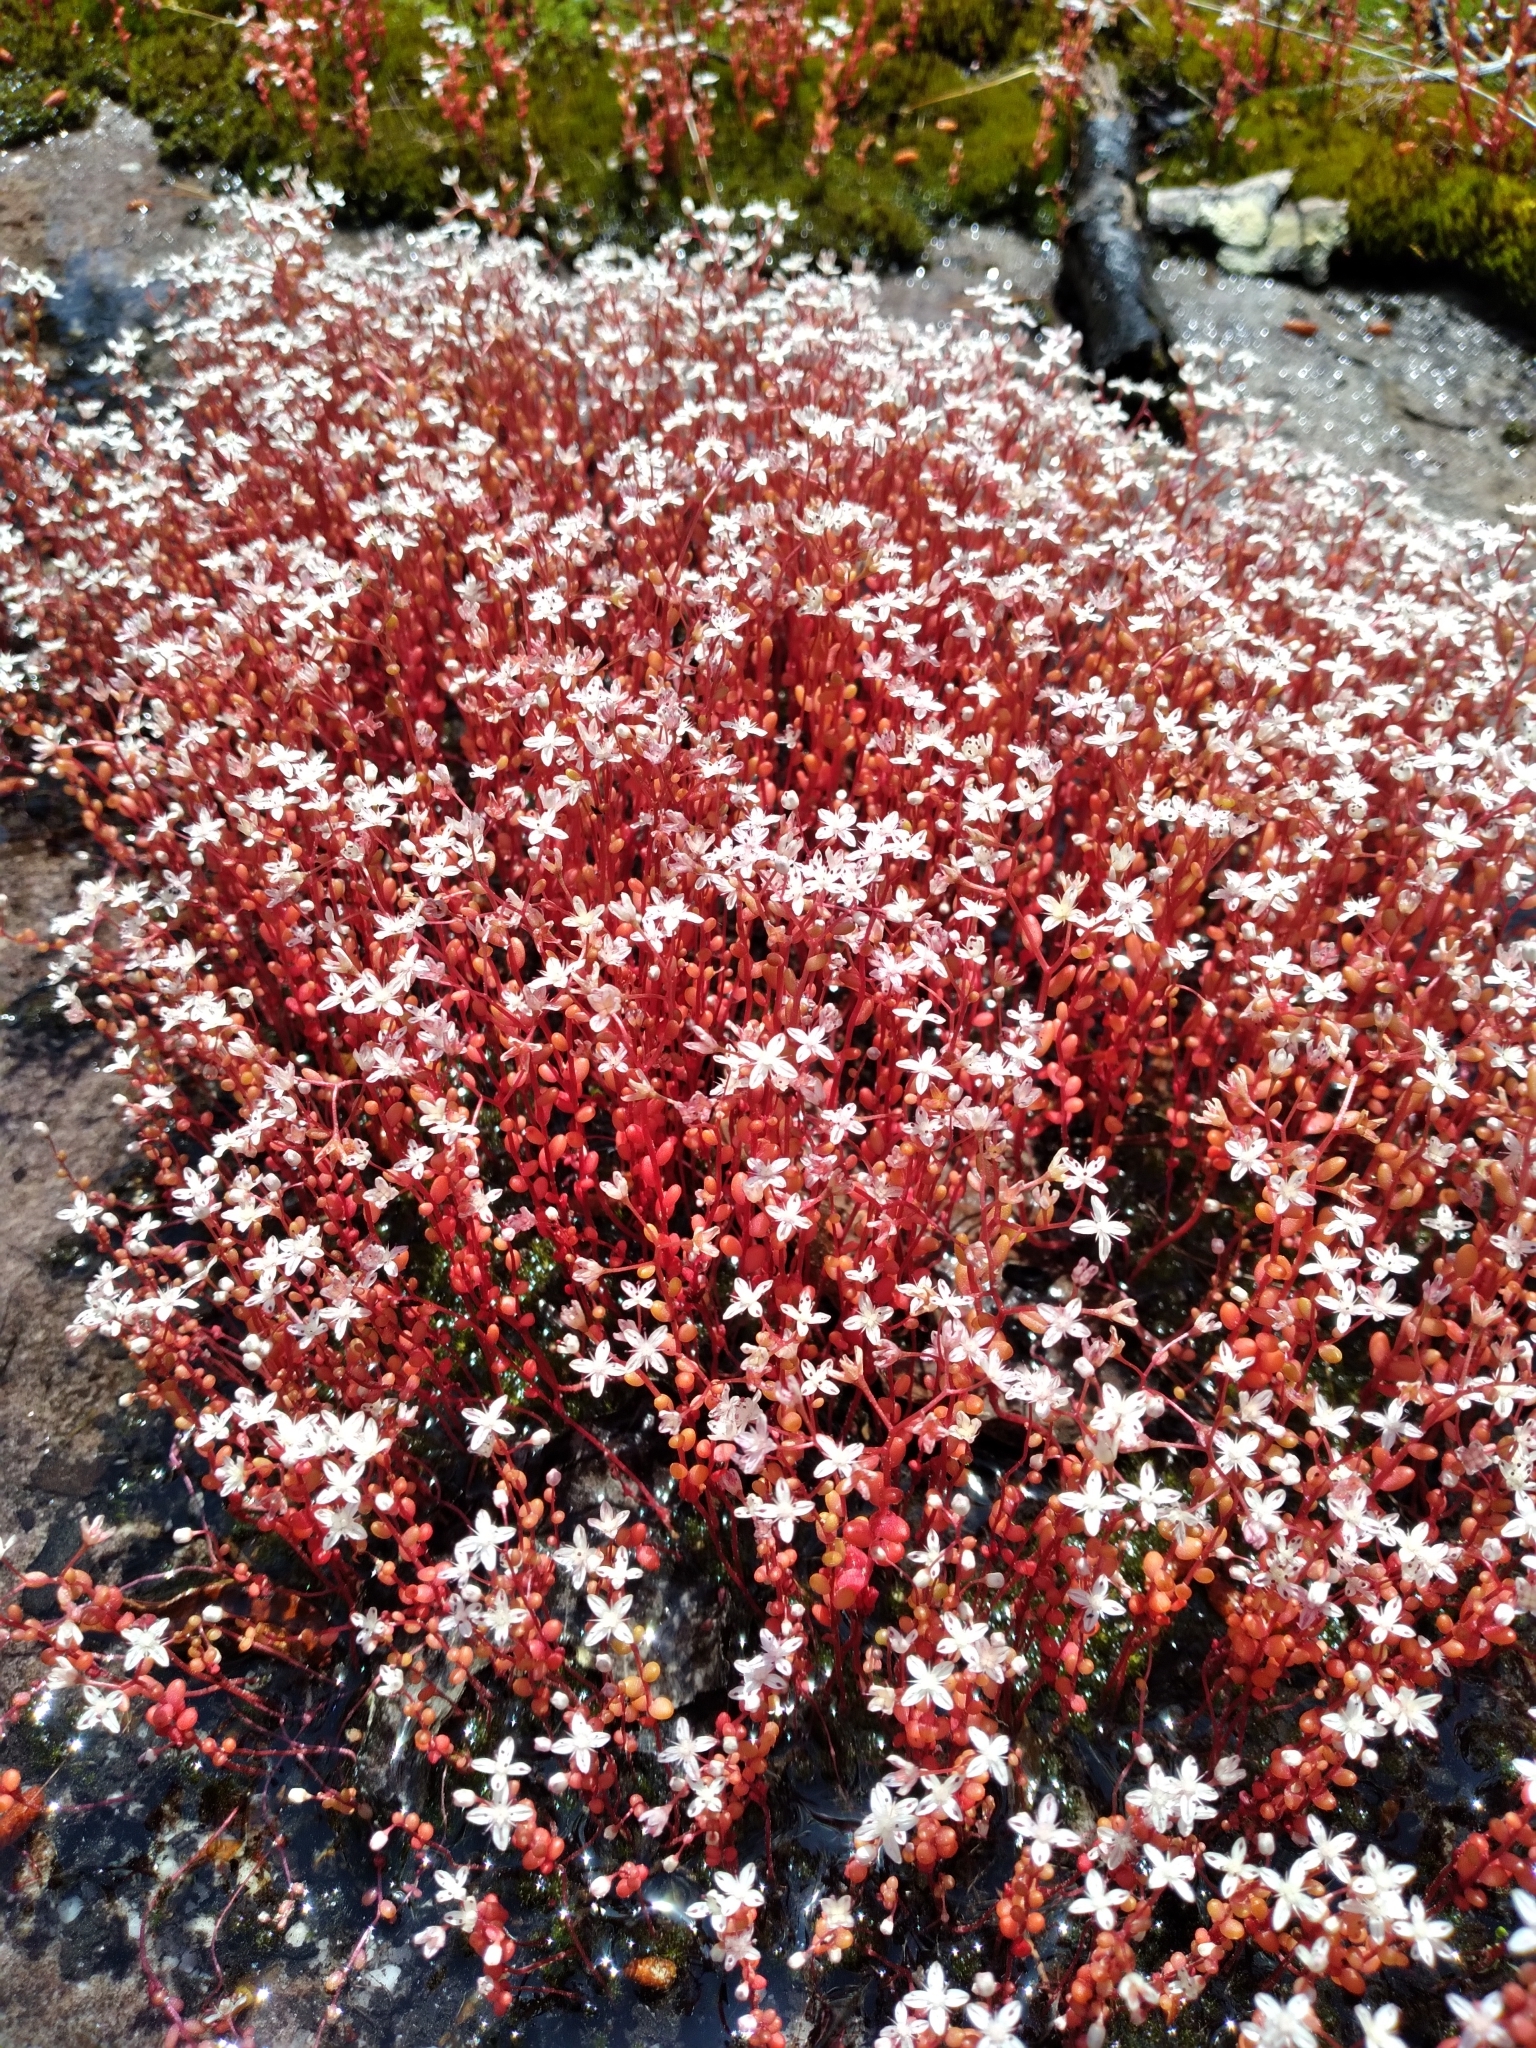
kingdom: Plantae
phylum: Tracheophyta
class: Magnoliopsida
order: Saxifragales
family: Crassulaceae
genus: Sedum
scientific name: Sedum smallii
